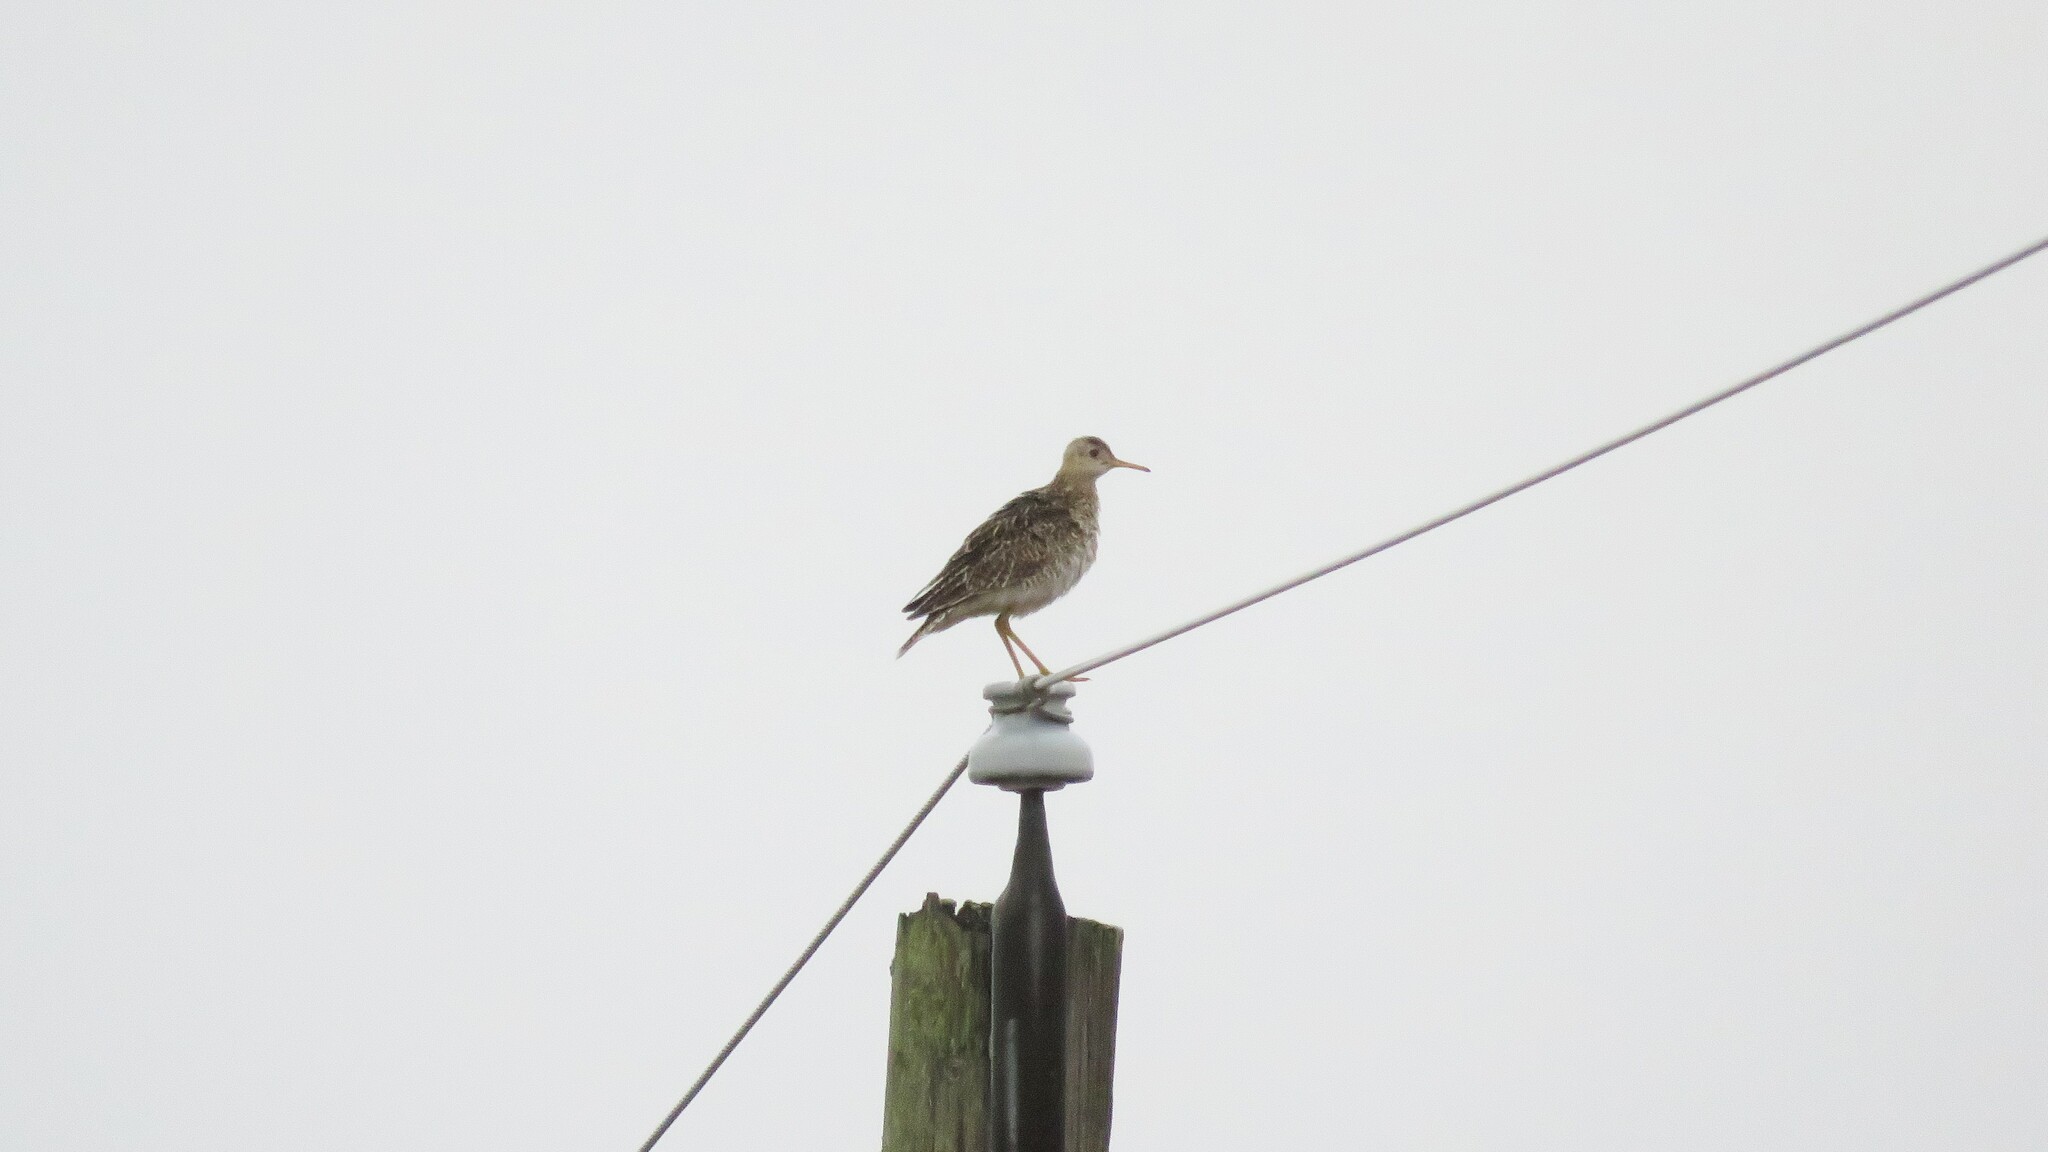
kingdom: Animalia
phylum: Chordata
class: Aves
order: Charadriiformes
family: Scolopacidae
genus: Bartramia
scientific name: Bartramia longicauda
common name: Upland sandpiper
